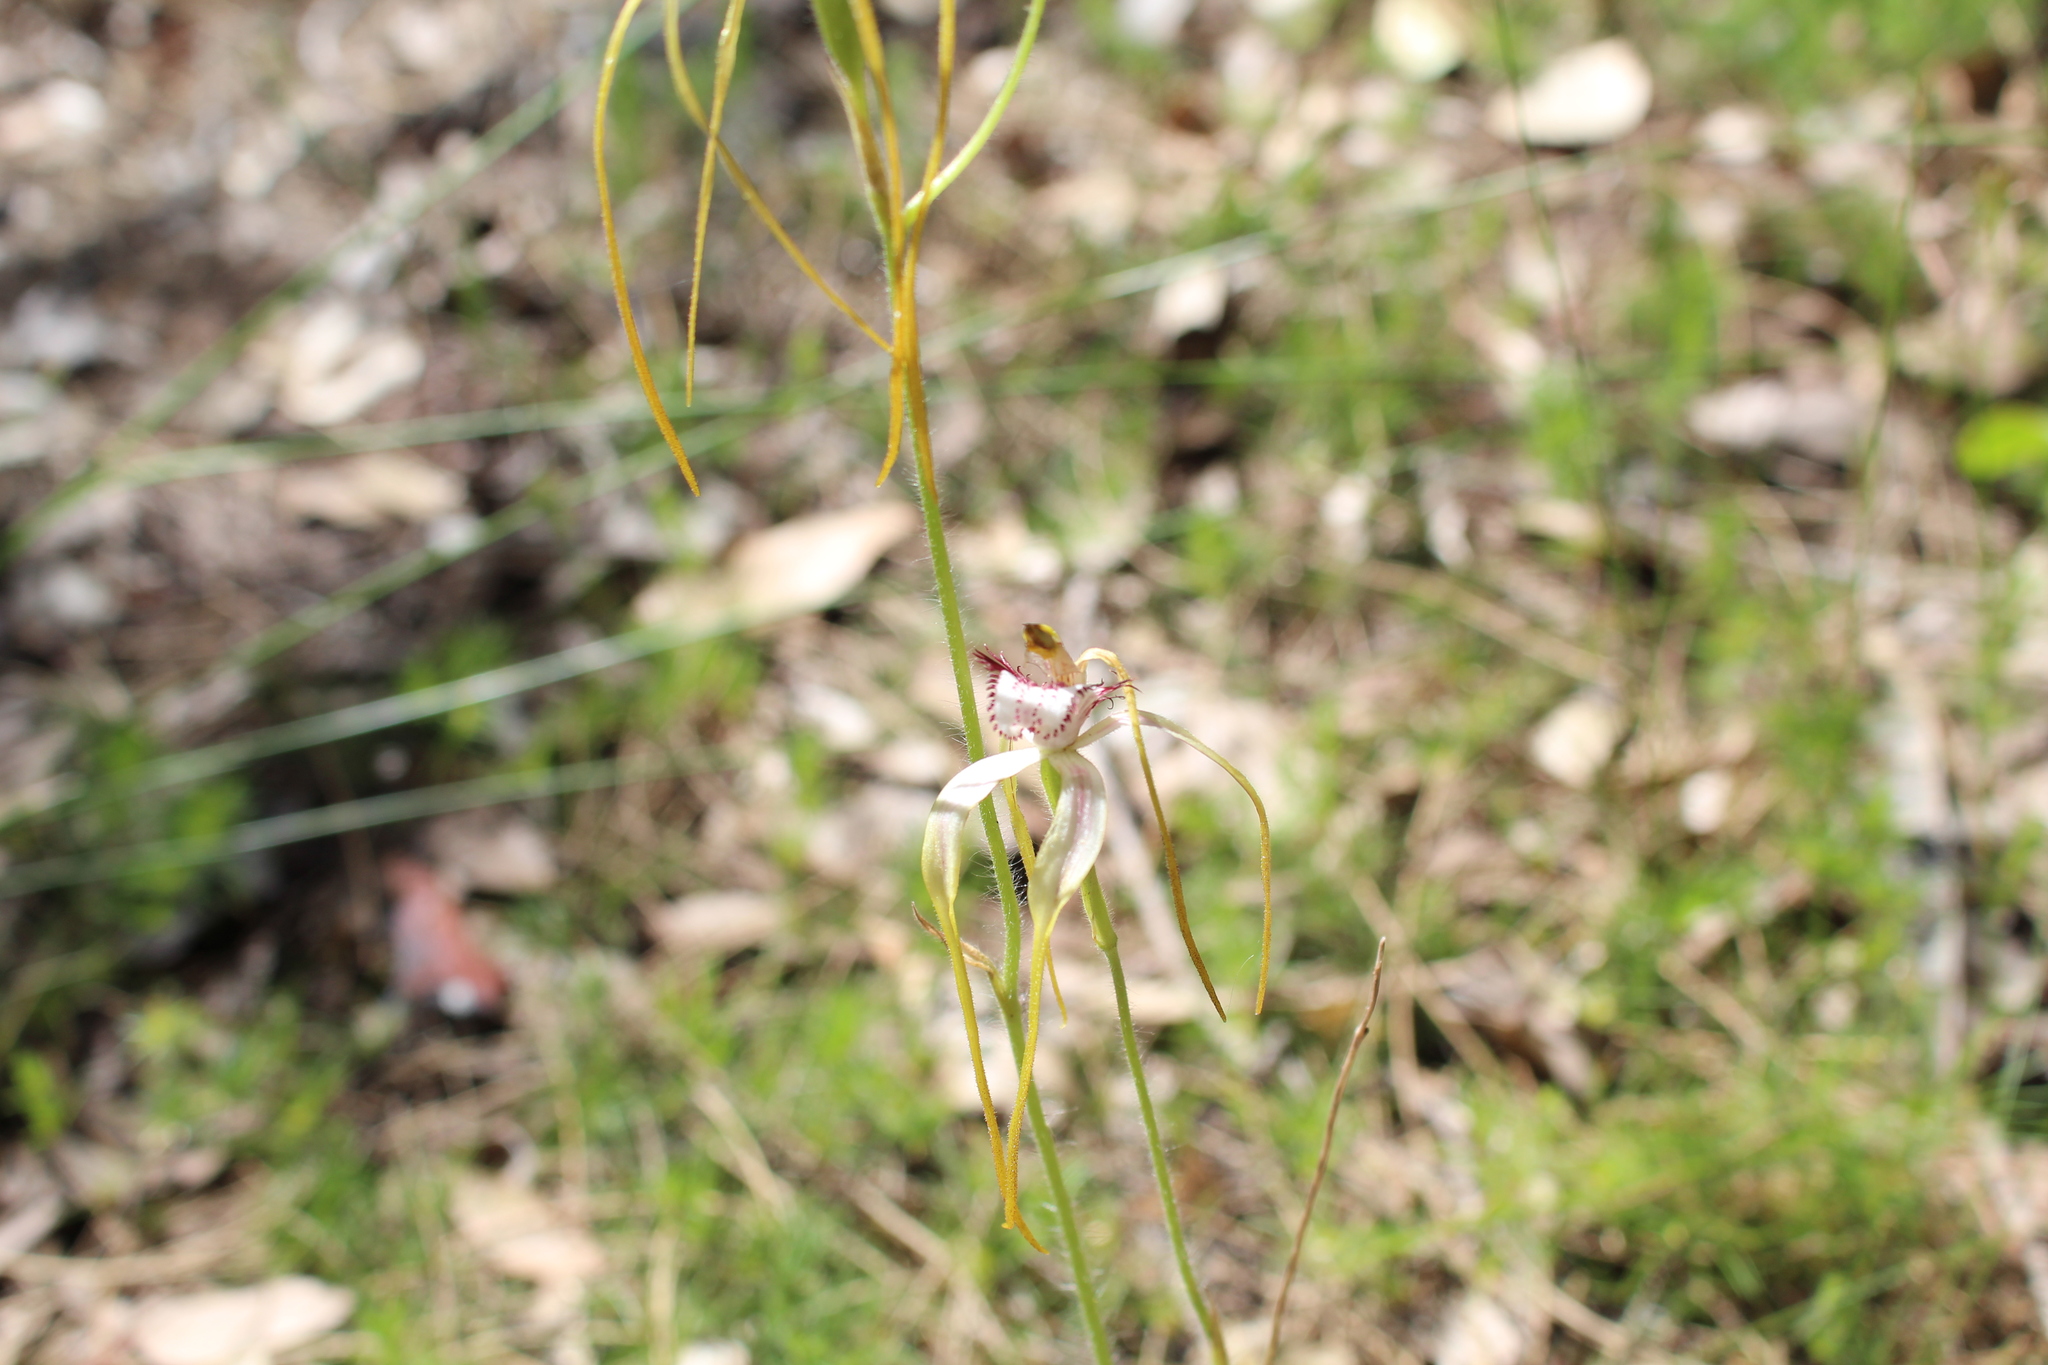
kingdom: Plantae
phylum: Tracheophyta
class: Liliopsida
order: Asparagales
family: Orchidaceae
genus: Caladenia
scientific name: Caladenia serotina
